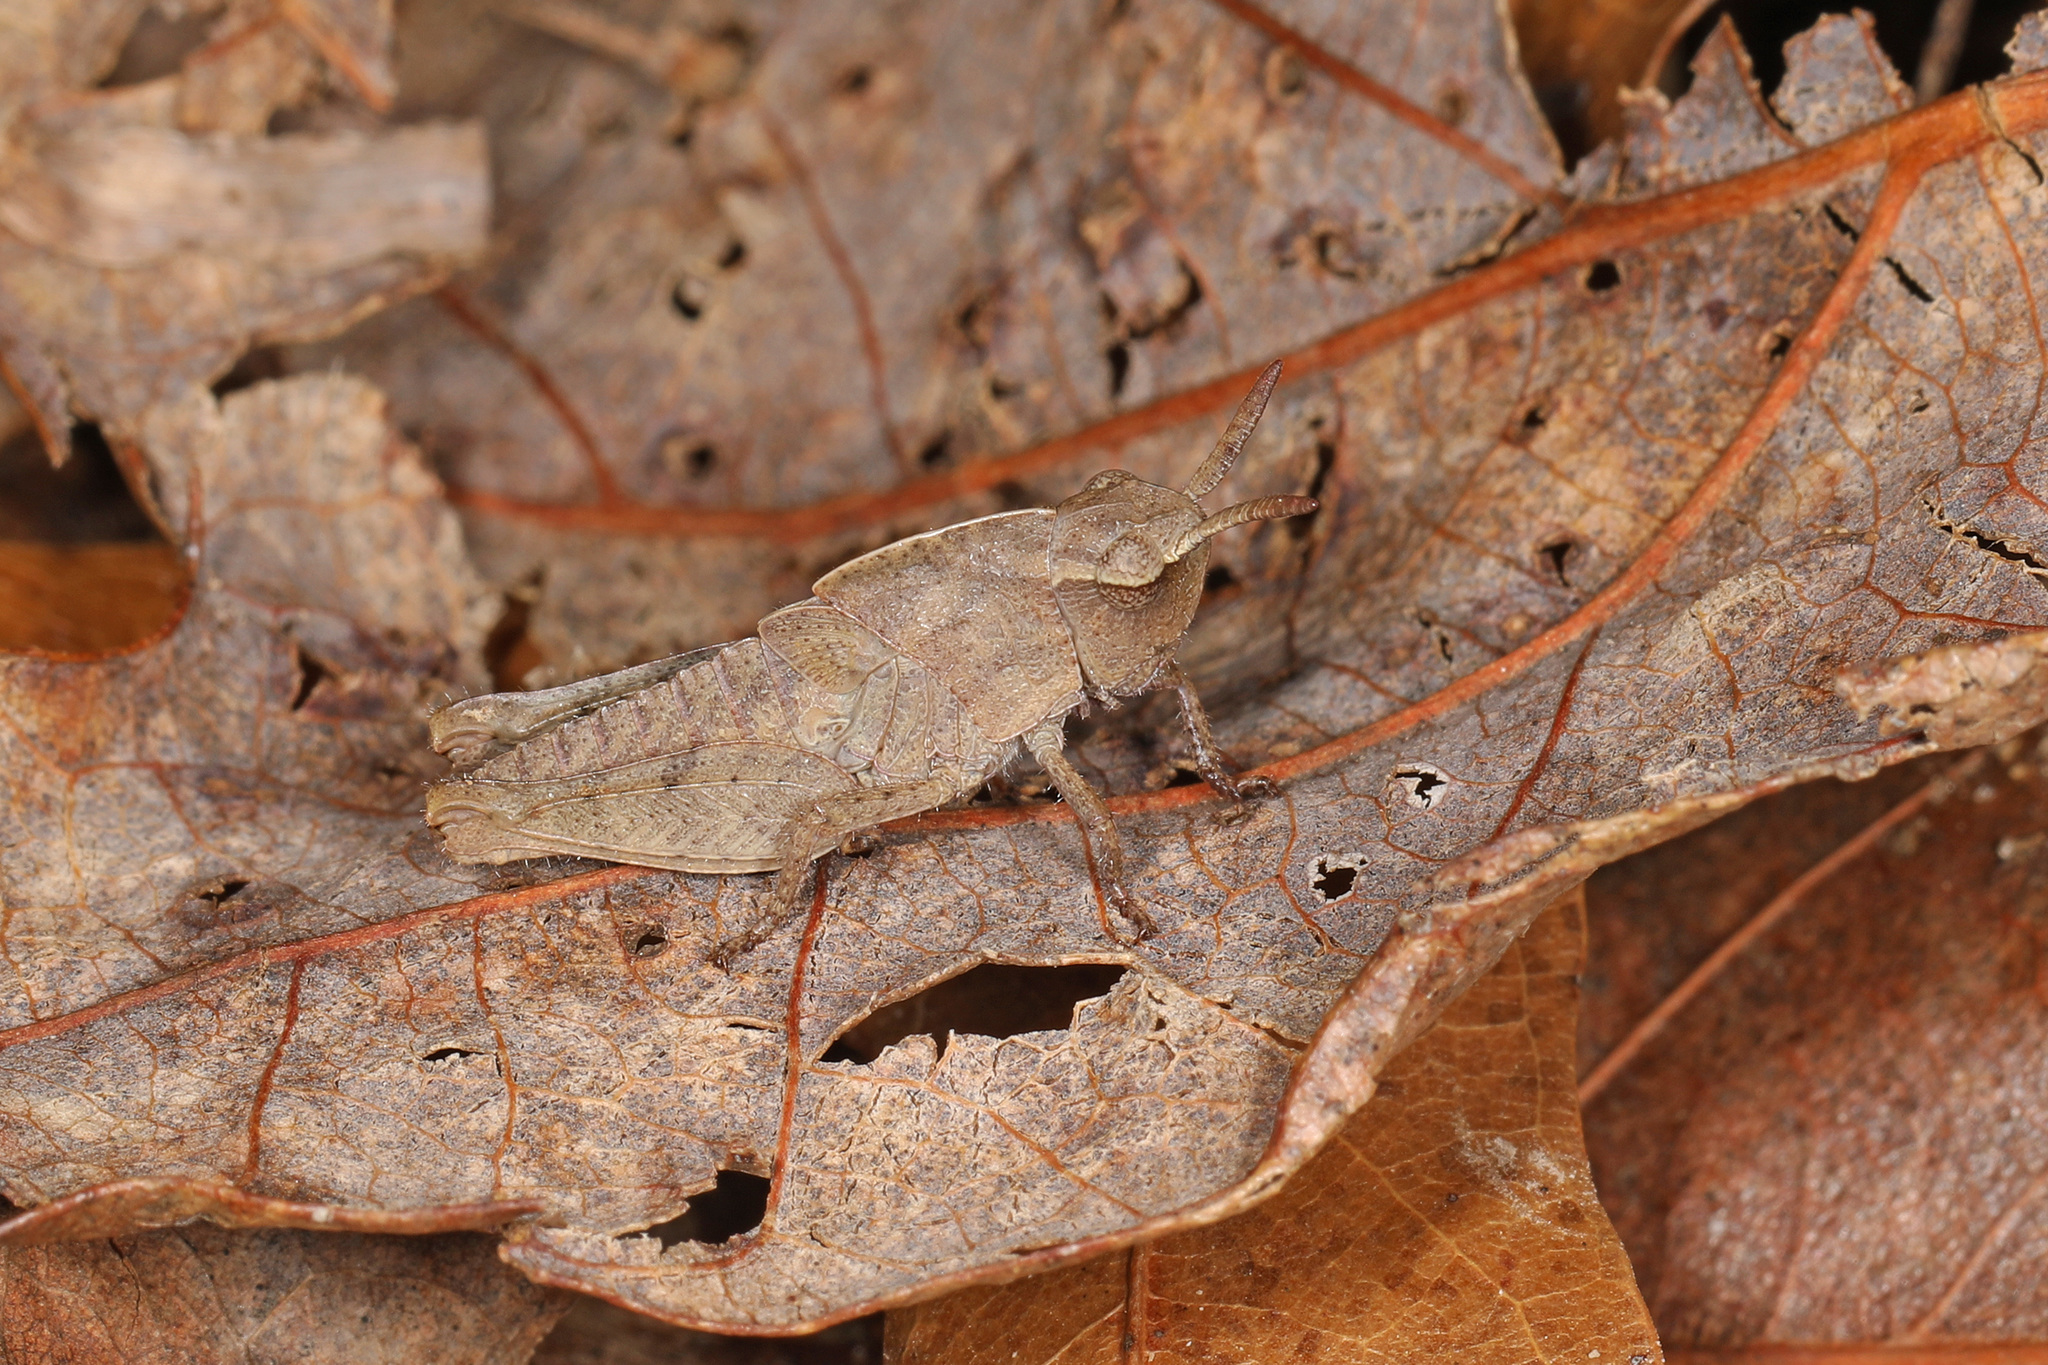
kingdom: Animalia
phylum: Arthropoda
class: Insecta
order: Orthoptera
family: Acrididae
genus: Chortophaga
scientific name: Chortophaga viridifasciata
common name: Green-striped grasshopper
